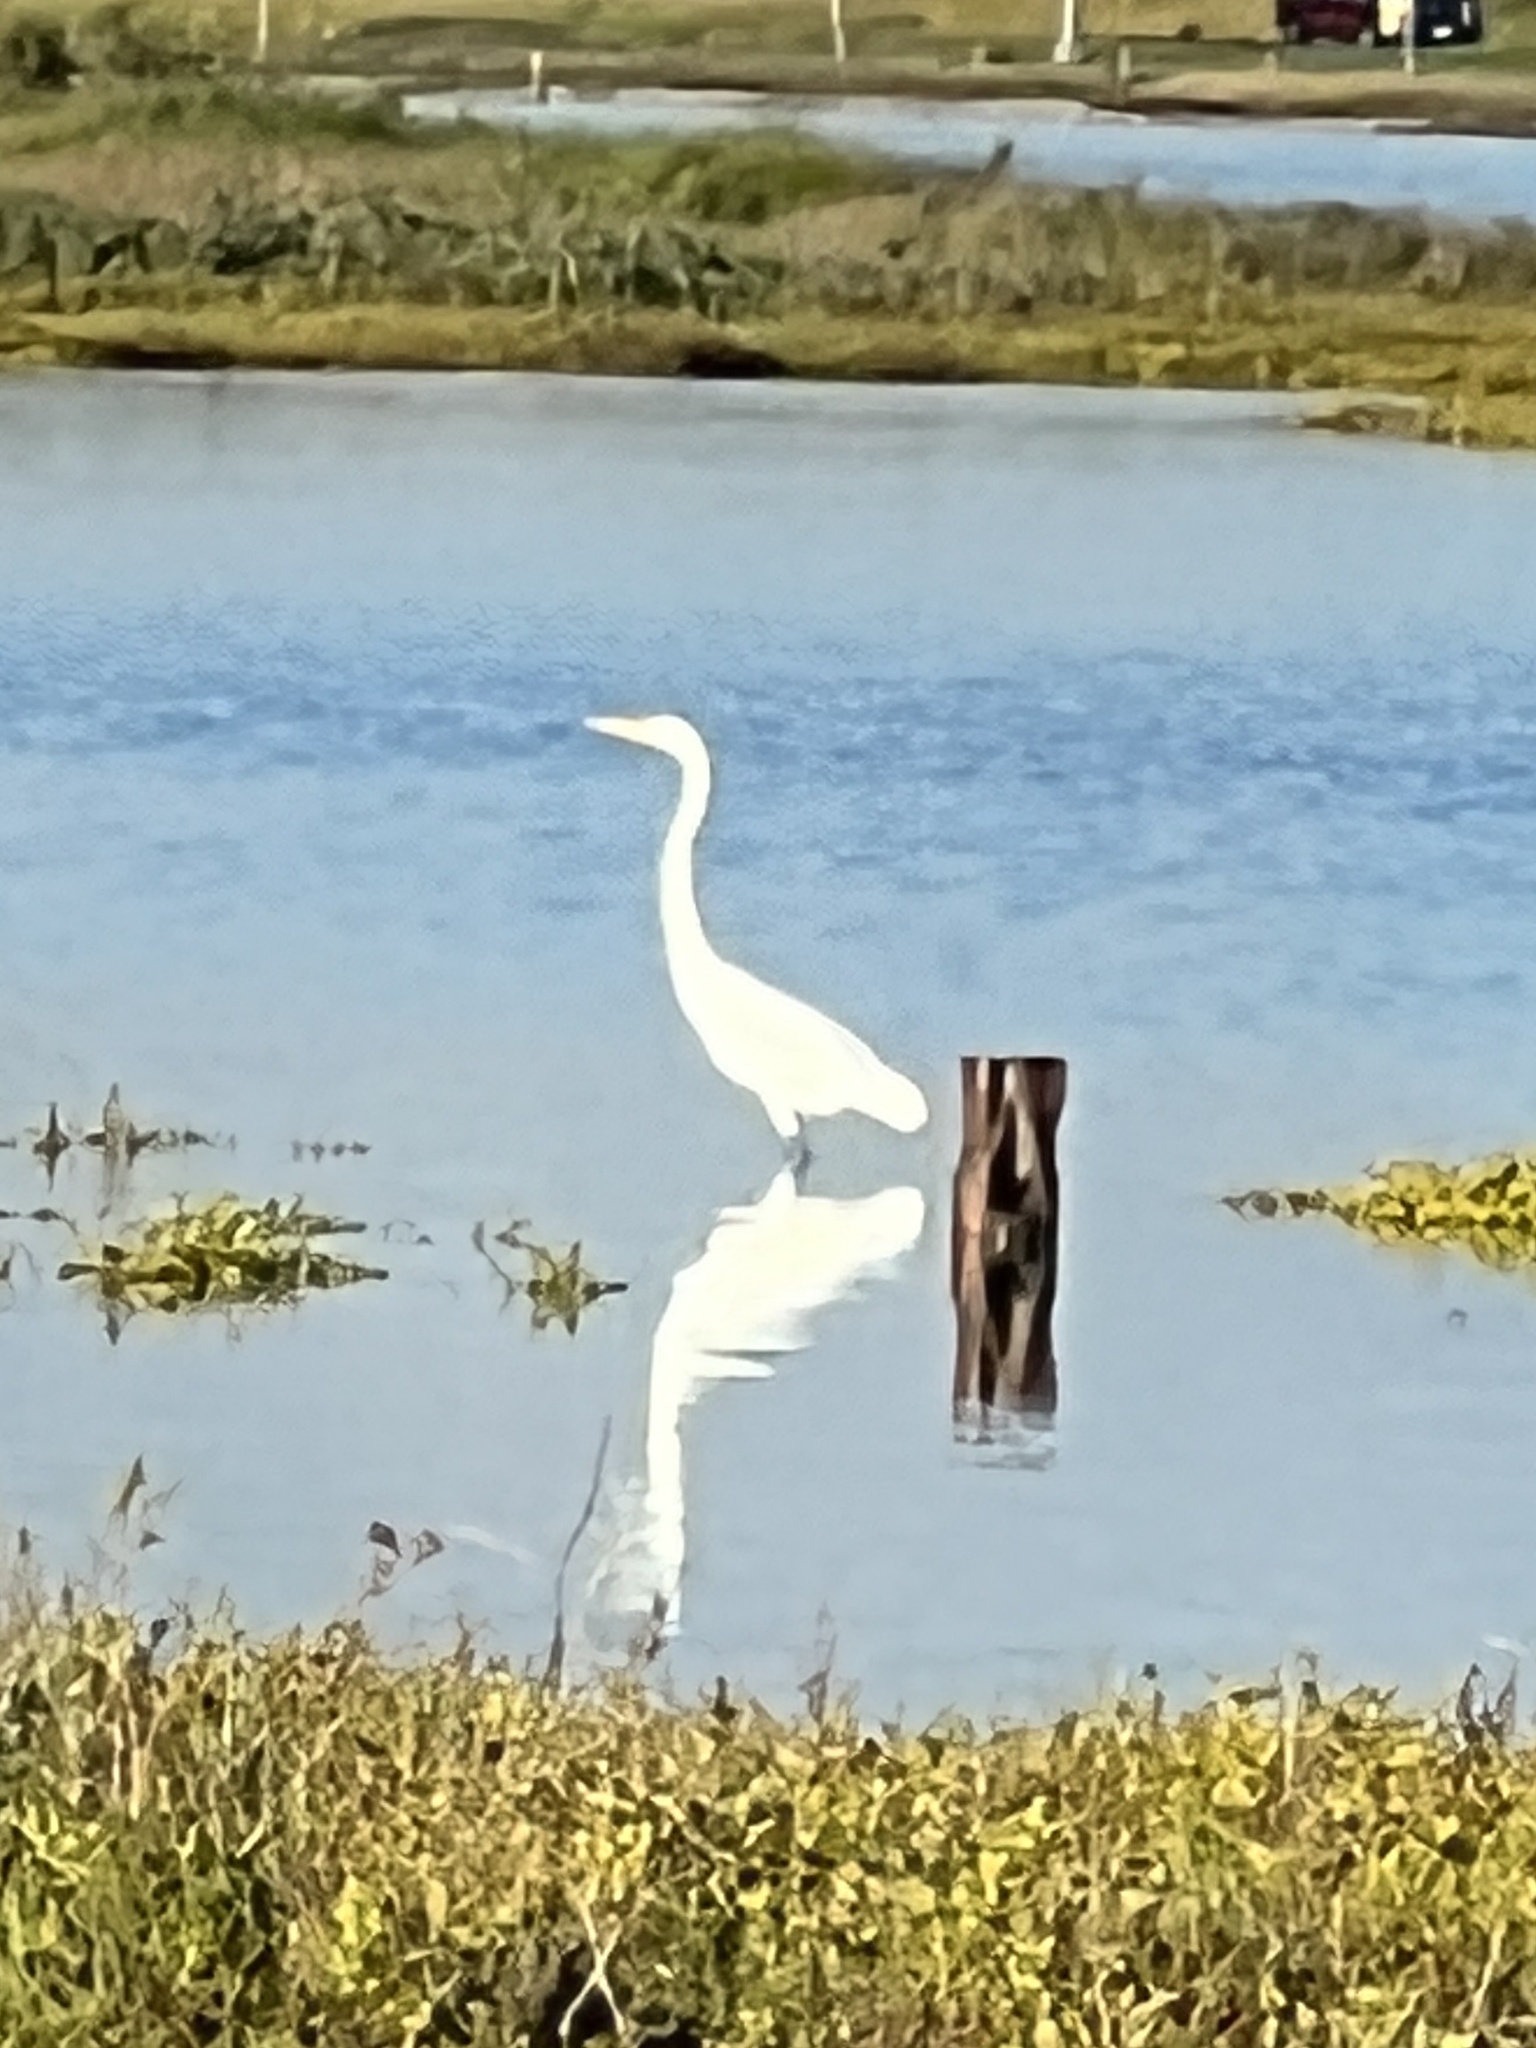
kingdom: Animalia
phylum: Chordata
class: Aves
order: Pelecaniformes
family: Ardeidae
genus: Ardea
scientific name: Ardea alba
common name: Great egret
